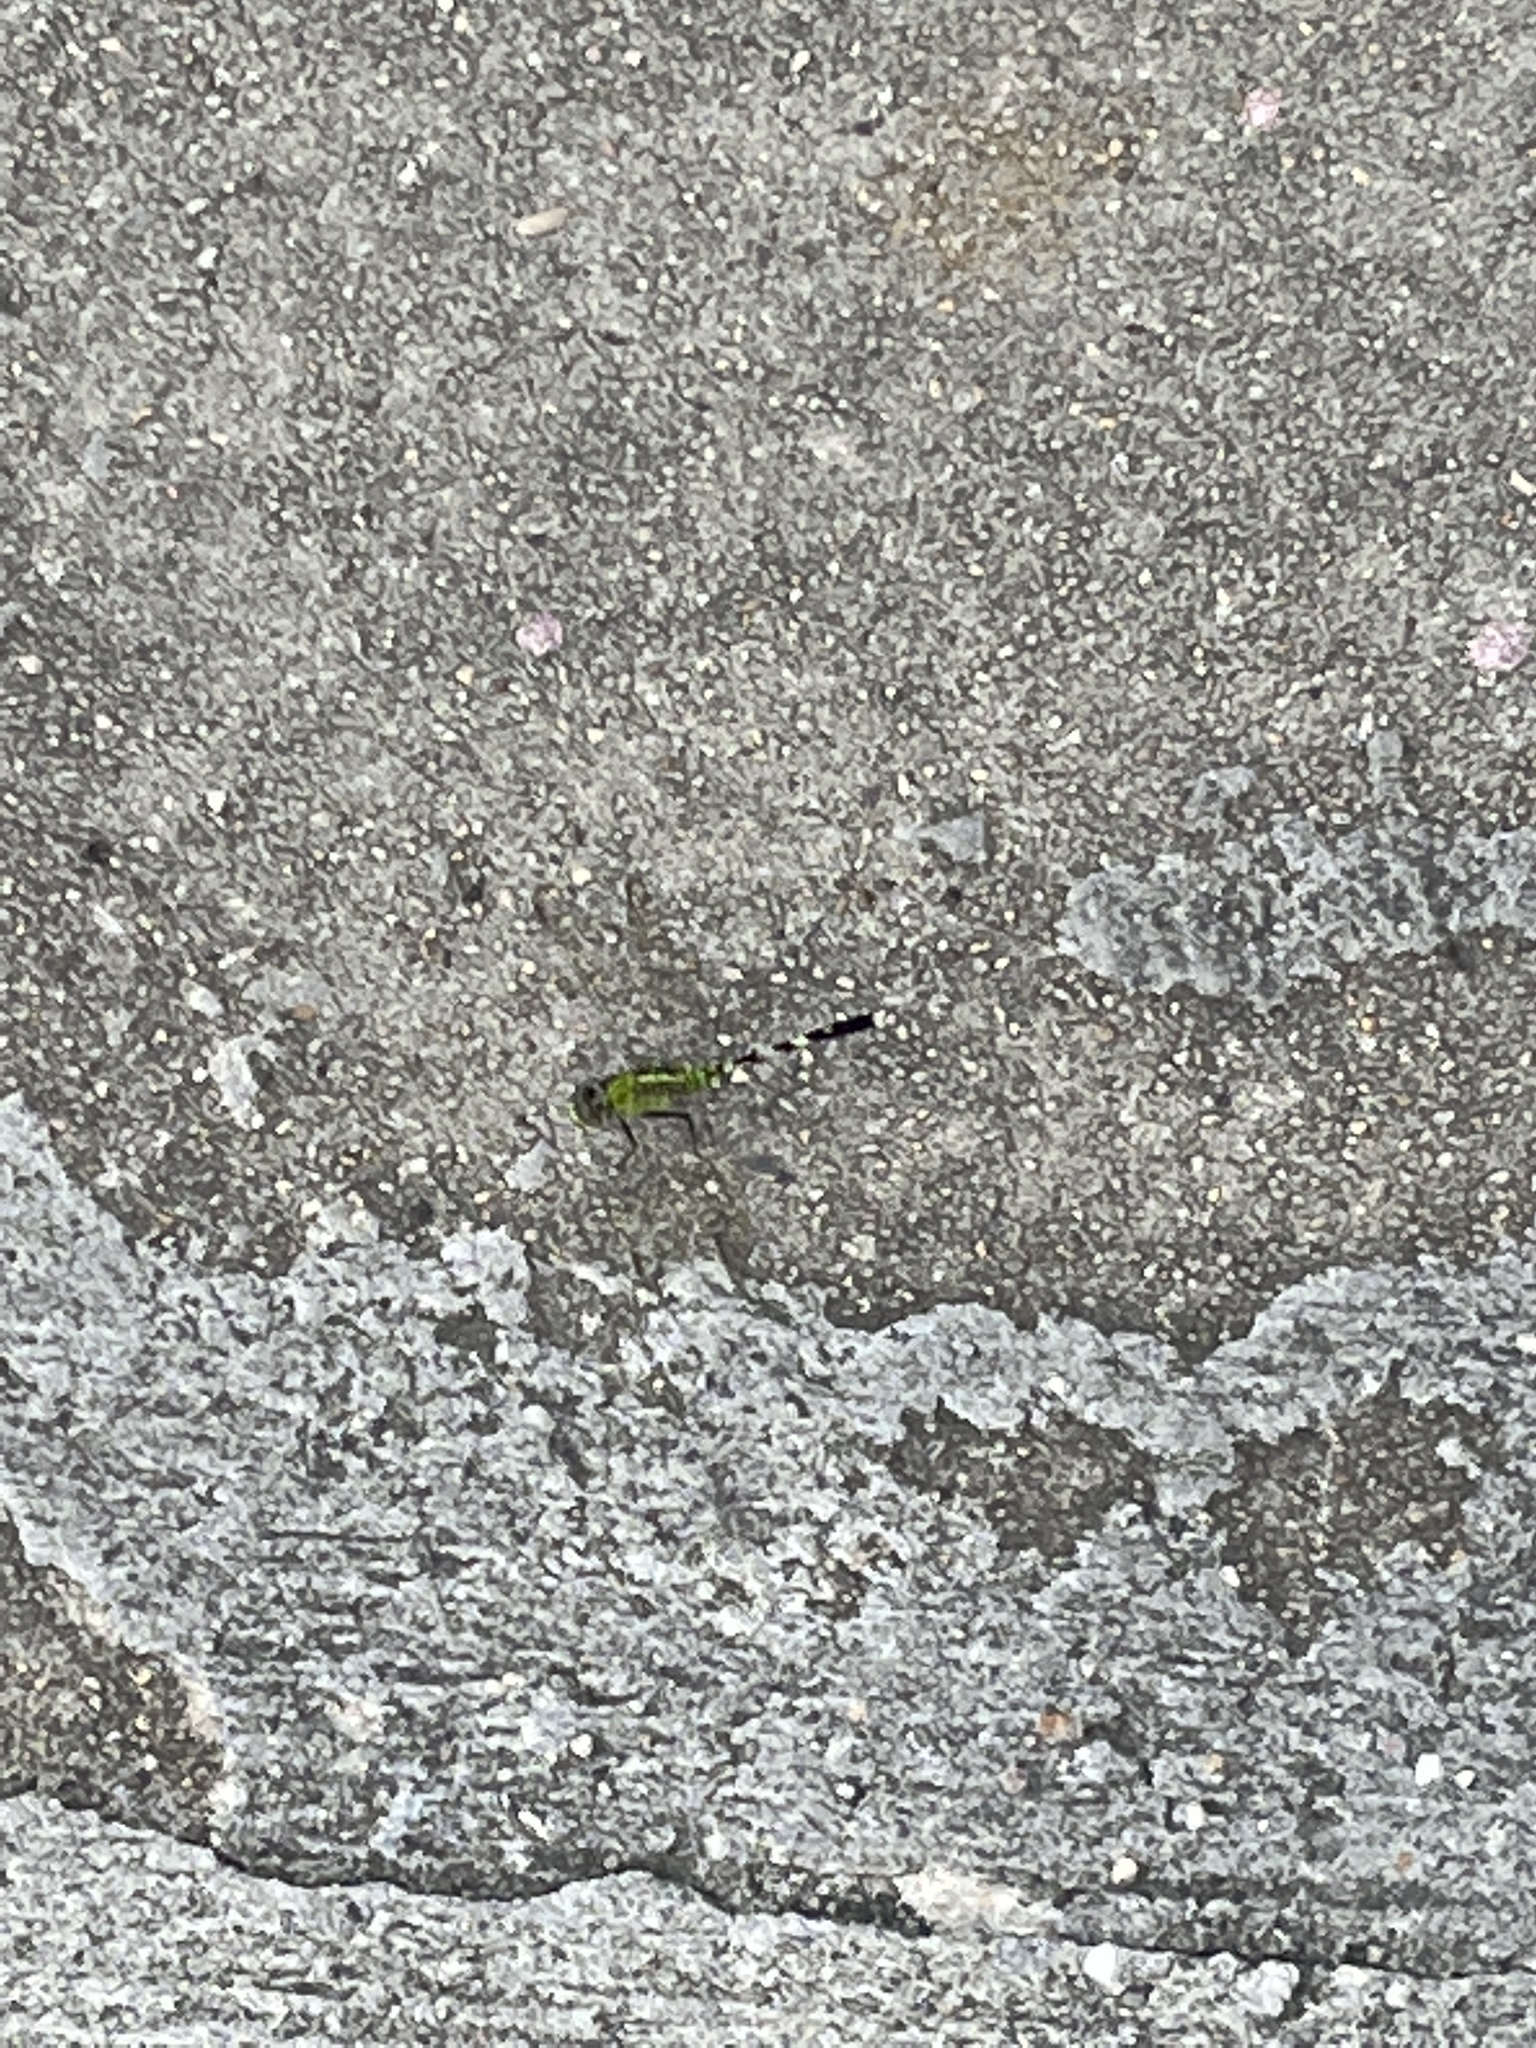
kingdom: Animalia
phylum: Arthropoda
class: Insecta
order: Odonata
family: Libellulidae
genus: Erythemis
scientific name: Erythemis simplicicollis
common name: Eastern pondhawk
